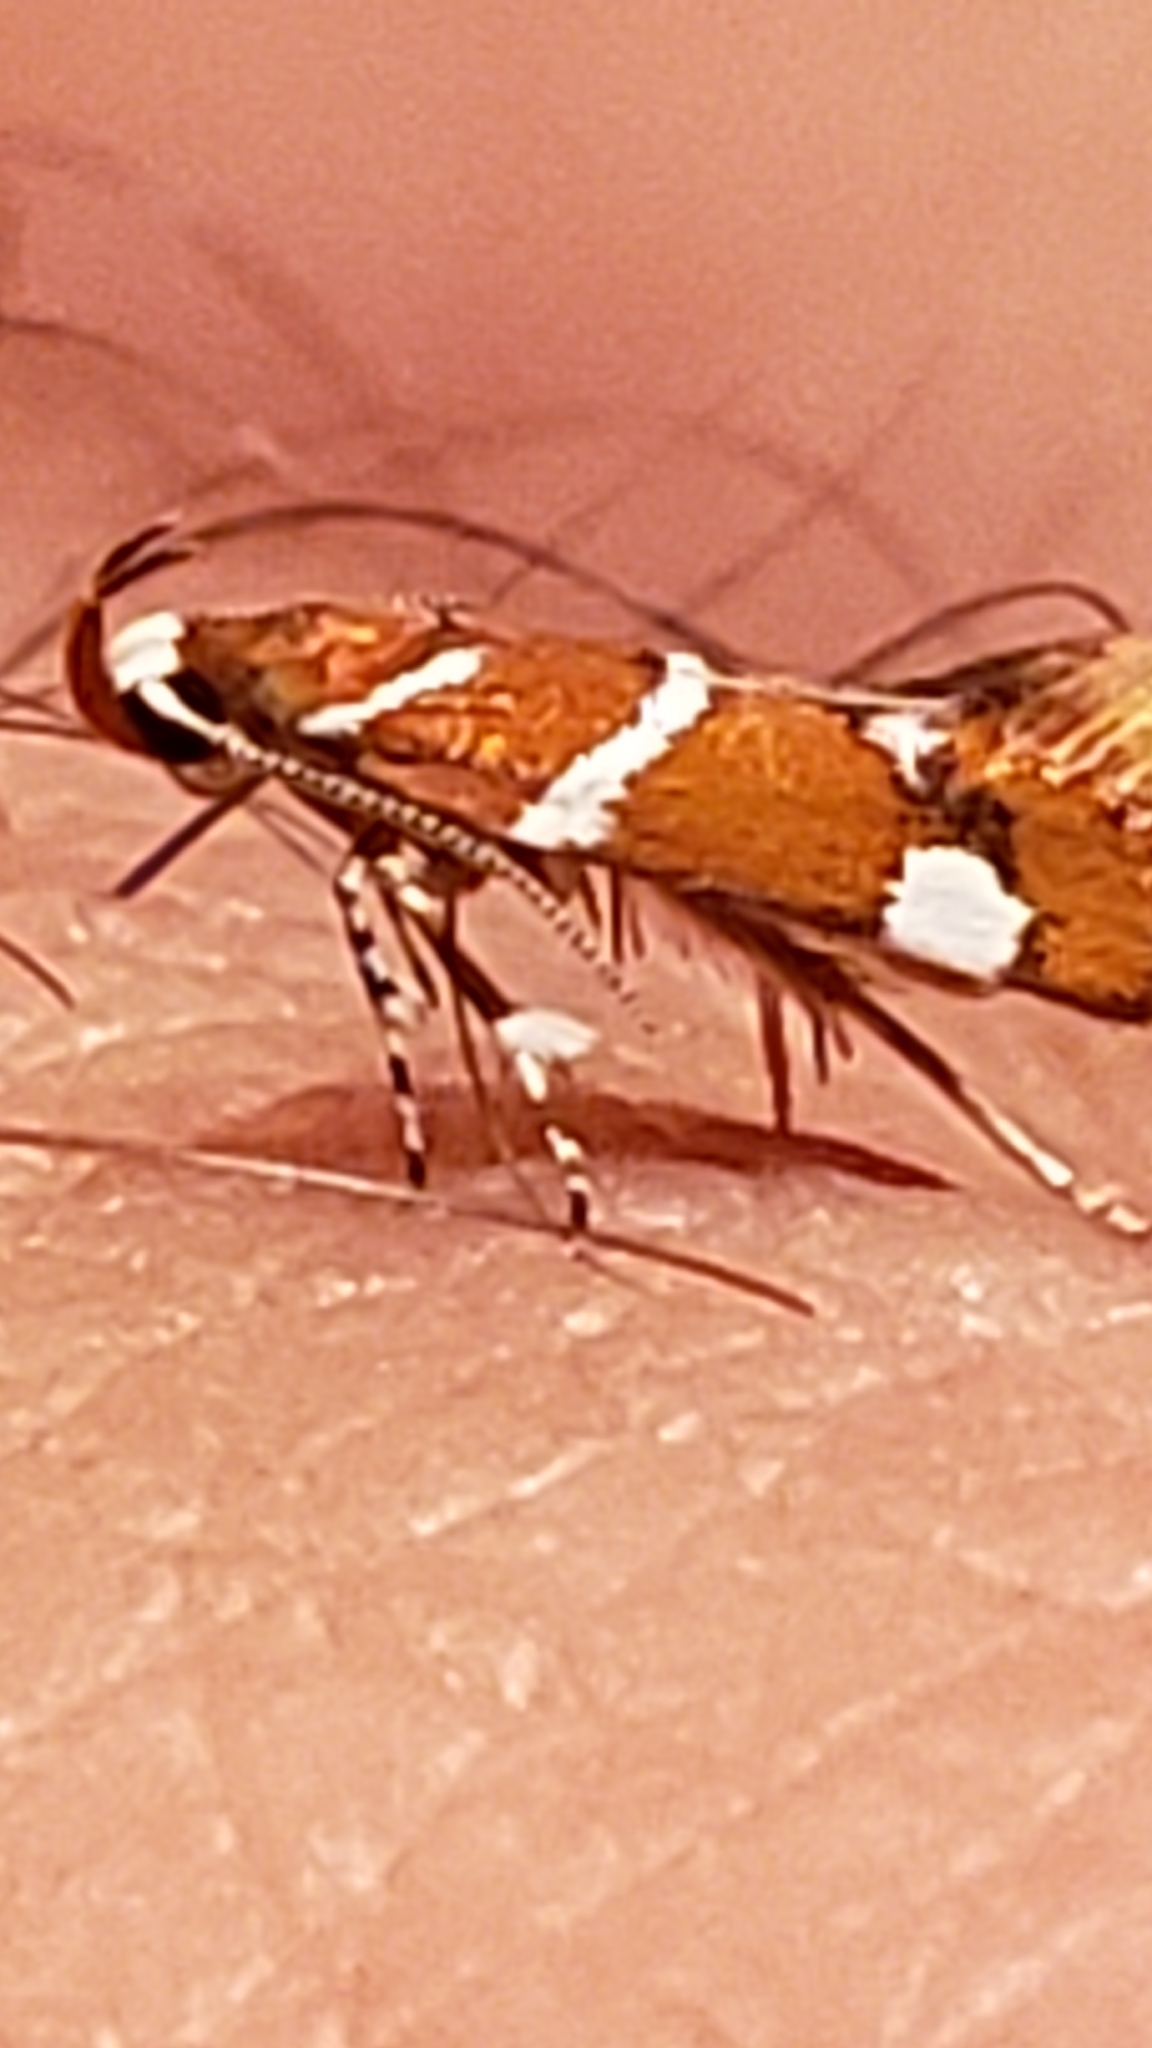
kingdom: Animalia
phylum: Arthropoda
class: Insecta
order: Lepidoptera
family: Oecophoridae
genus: Promalactis
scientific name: Promalactis suzukiella
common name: Moth
